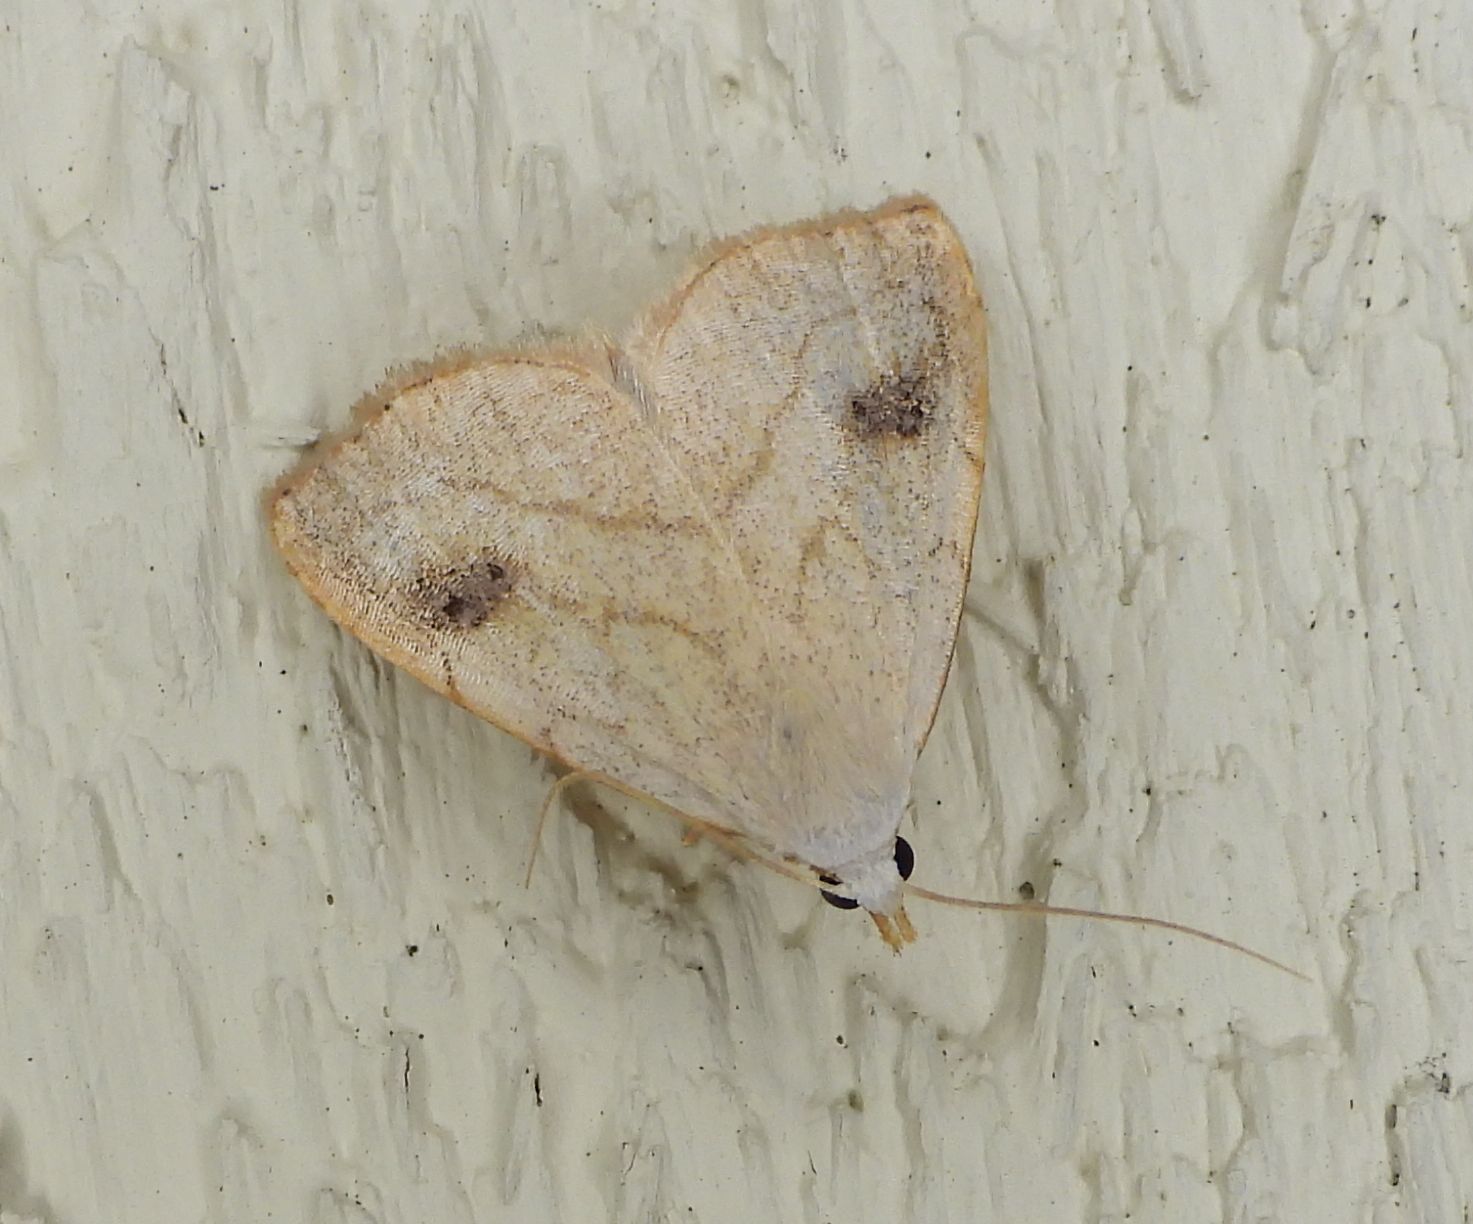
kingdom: Animalia
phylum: Arthropoda
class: Insecta
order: Lepidoptera
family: Erebidae
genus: Rivula
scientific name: Rivula propinqualis
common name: Spotted grass moth
